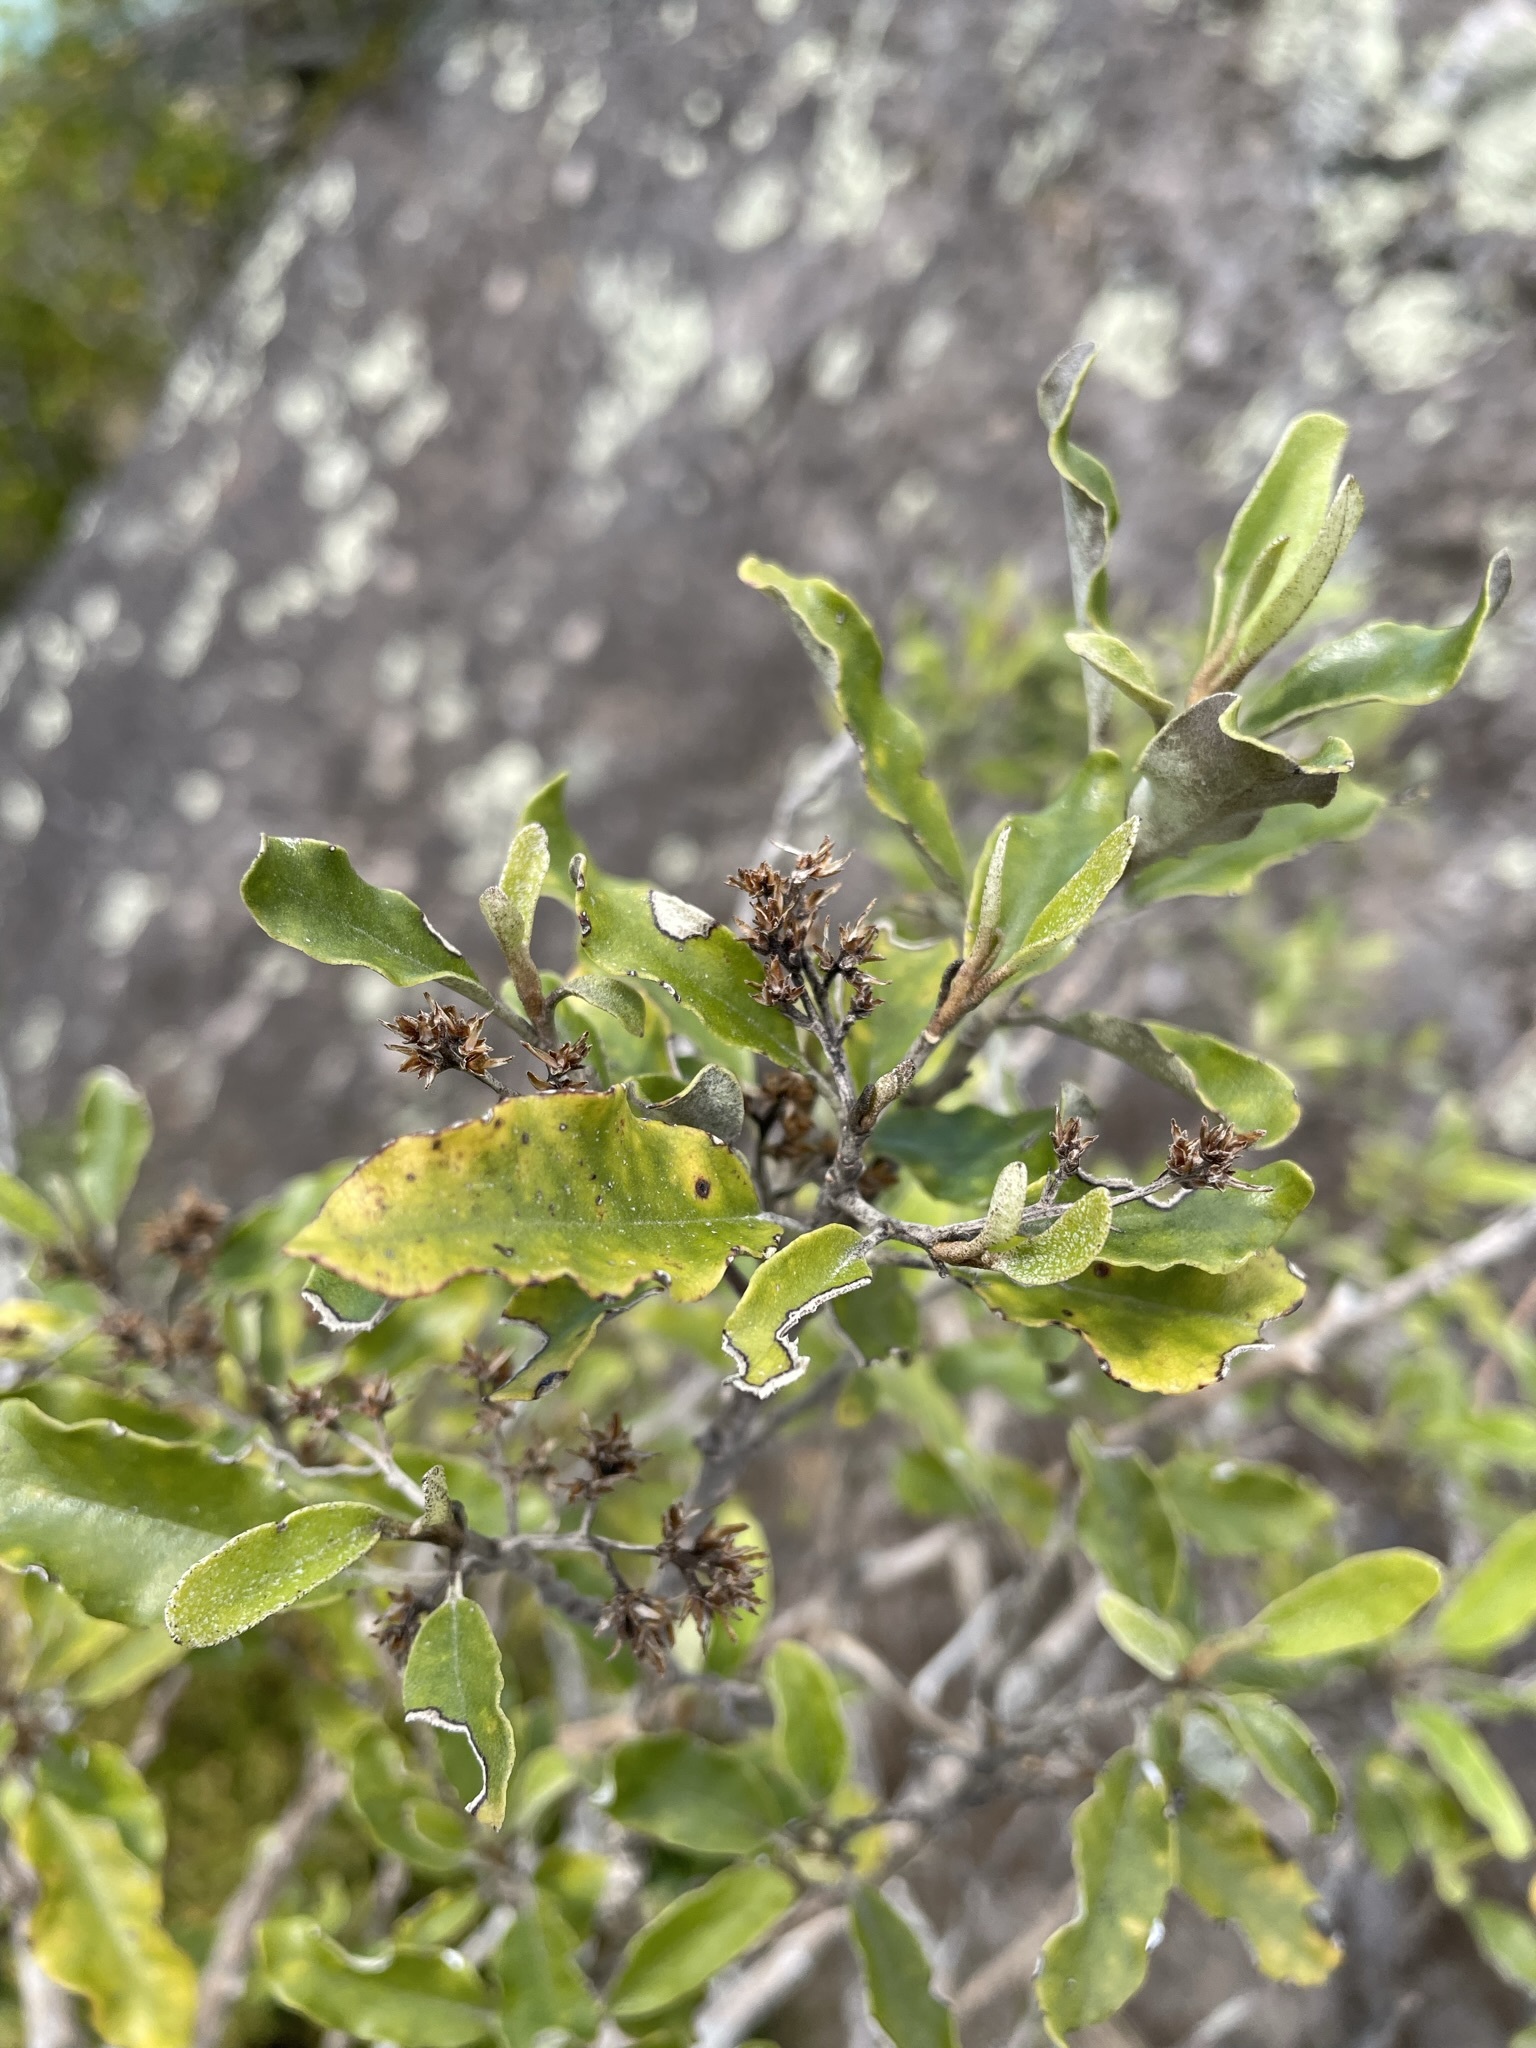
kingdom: Plantae
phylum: Tracheophyta
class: Magnoliopsida
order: Asterales
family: Asteraceae
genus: Olearia
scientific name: Olearia paniculata
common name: Akiraho
